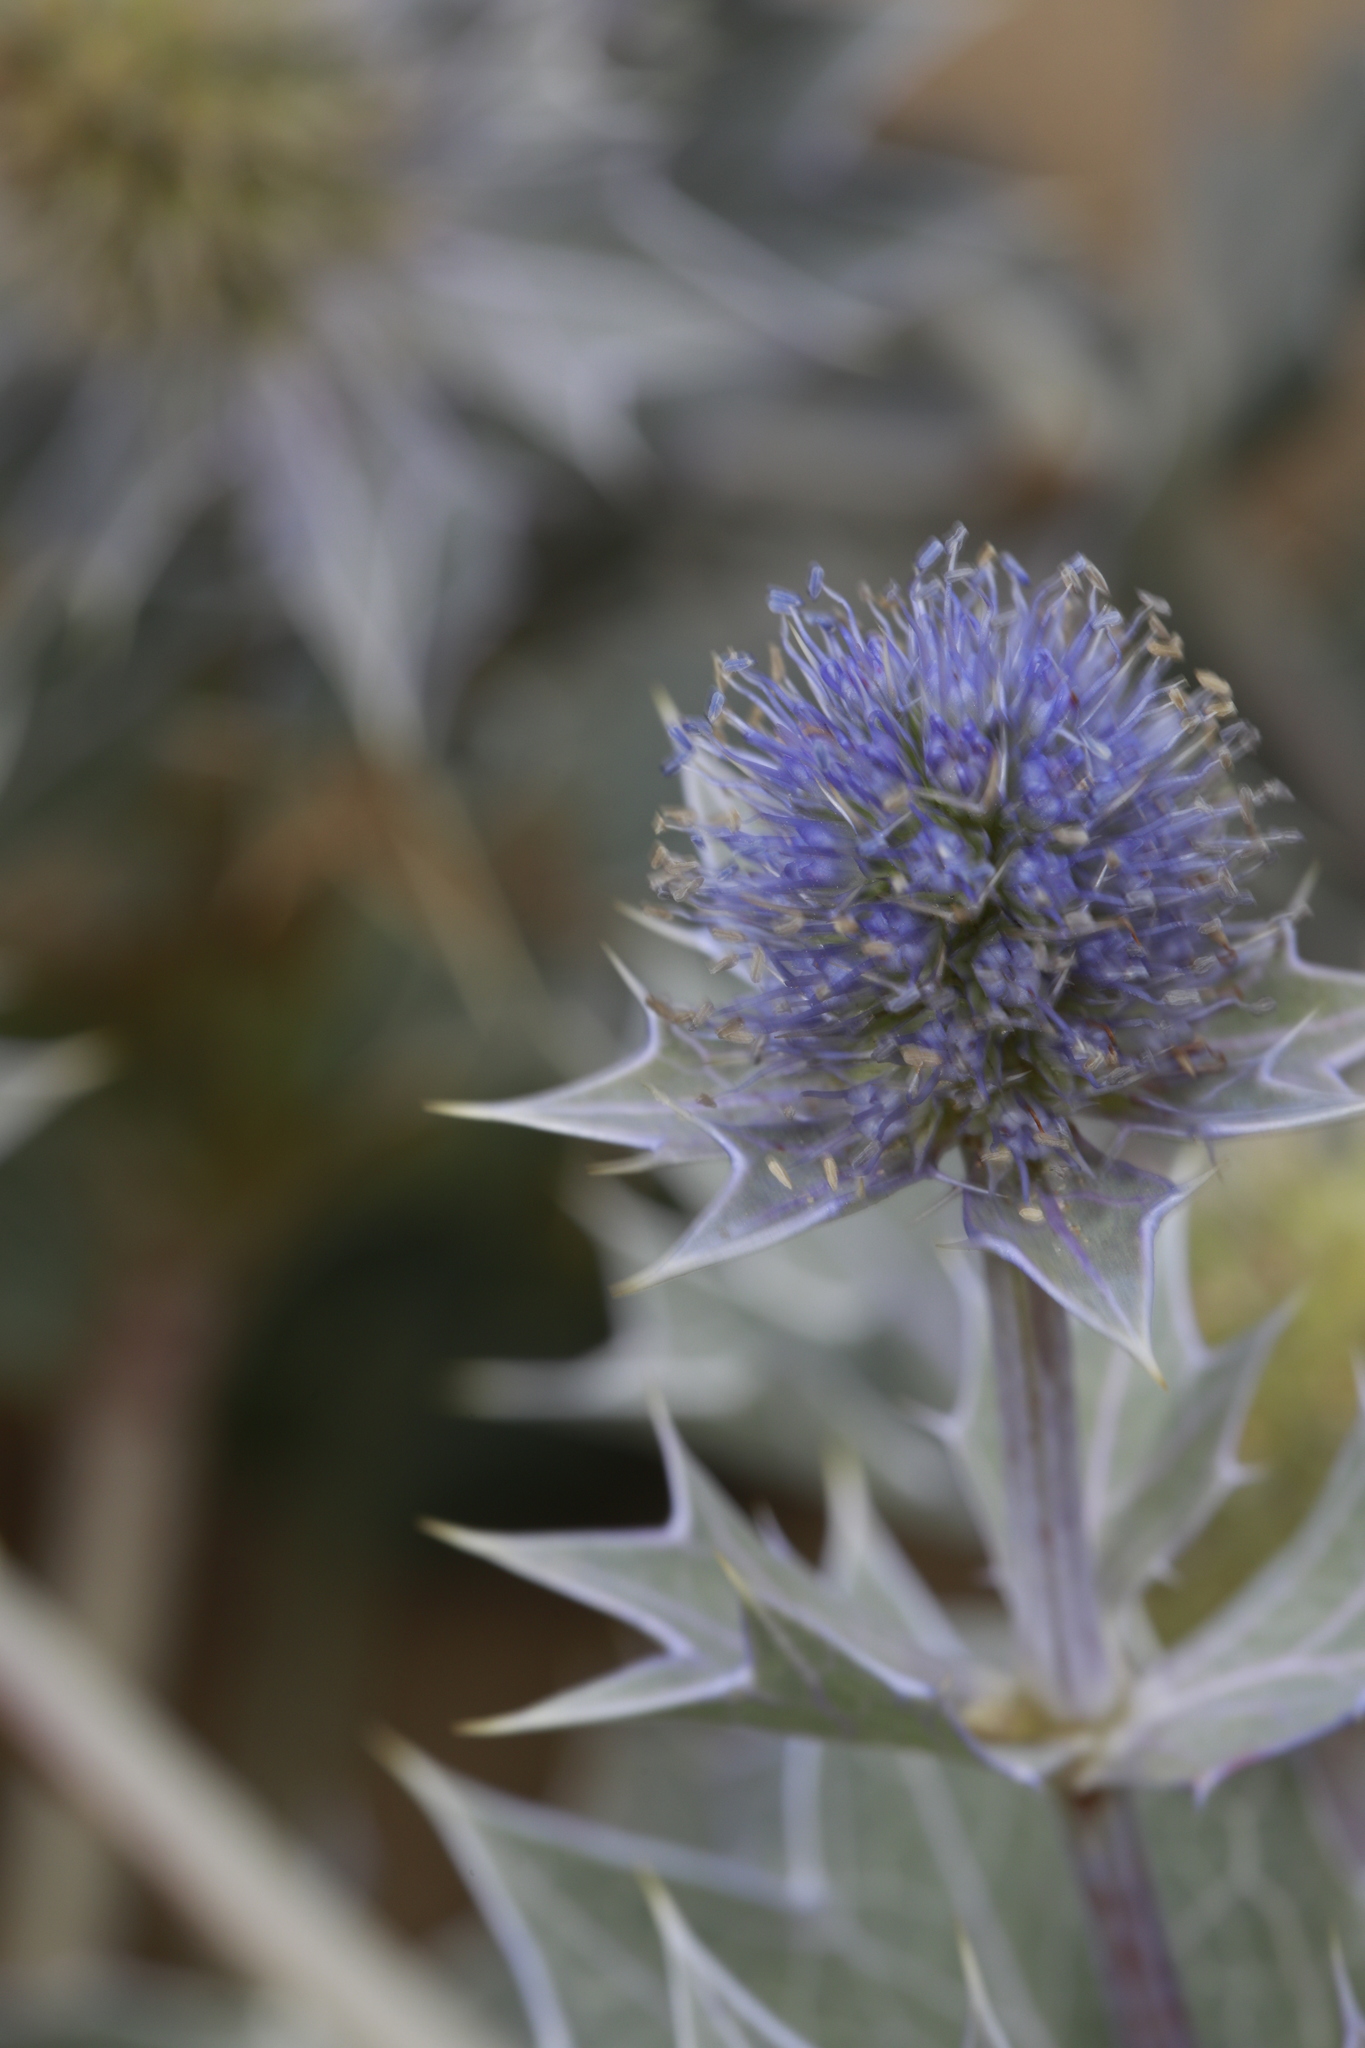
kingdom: Plantae
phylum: Tracheophyta
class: Magnoliopsida
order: Apiales
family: Apiaceae
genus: Eryngium
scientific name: Eryngium maritimum
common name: Sea-holly
